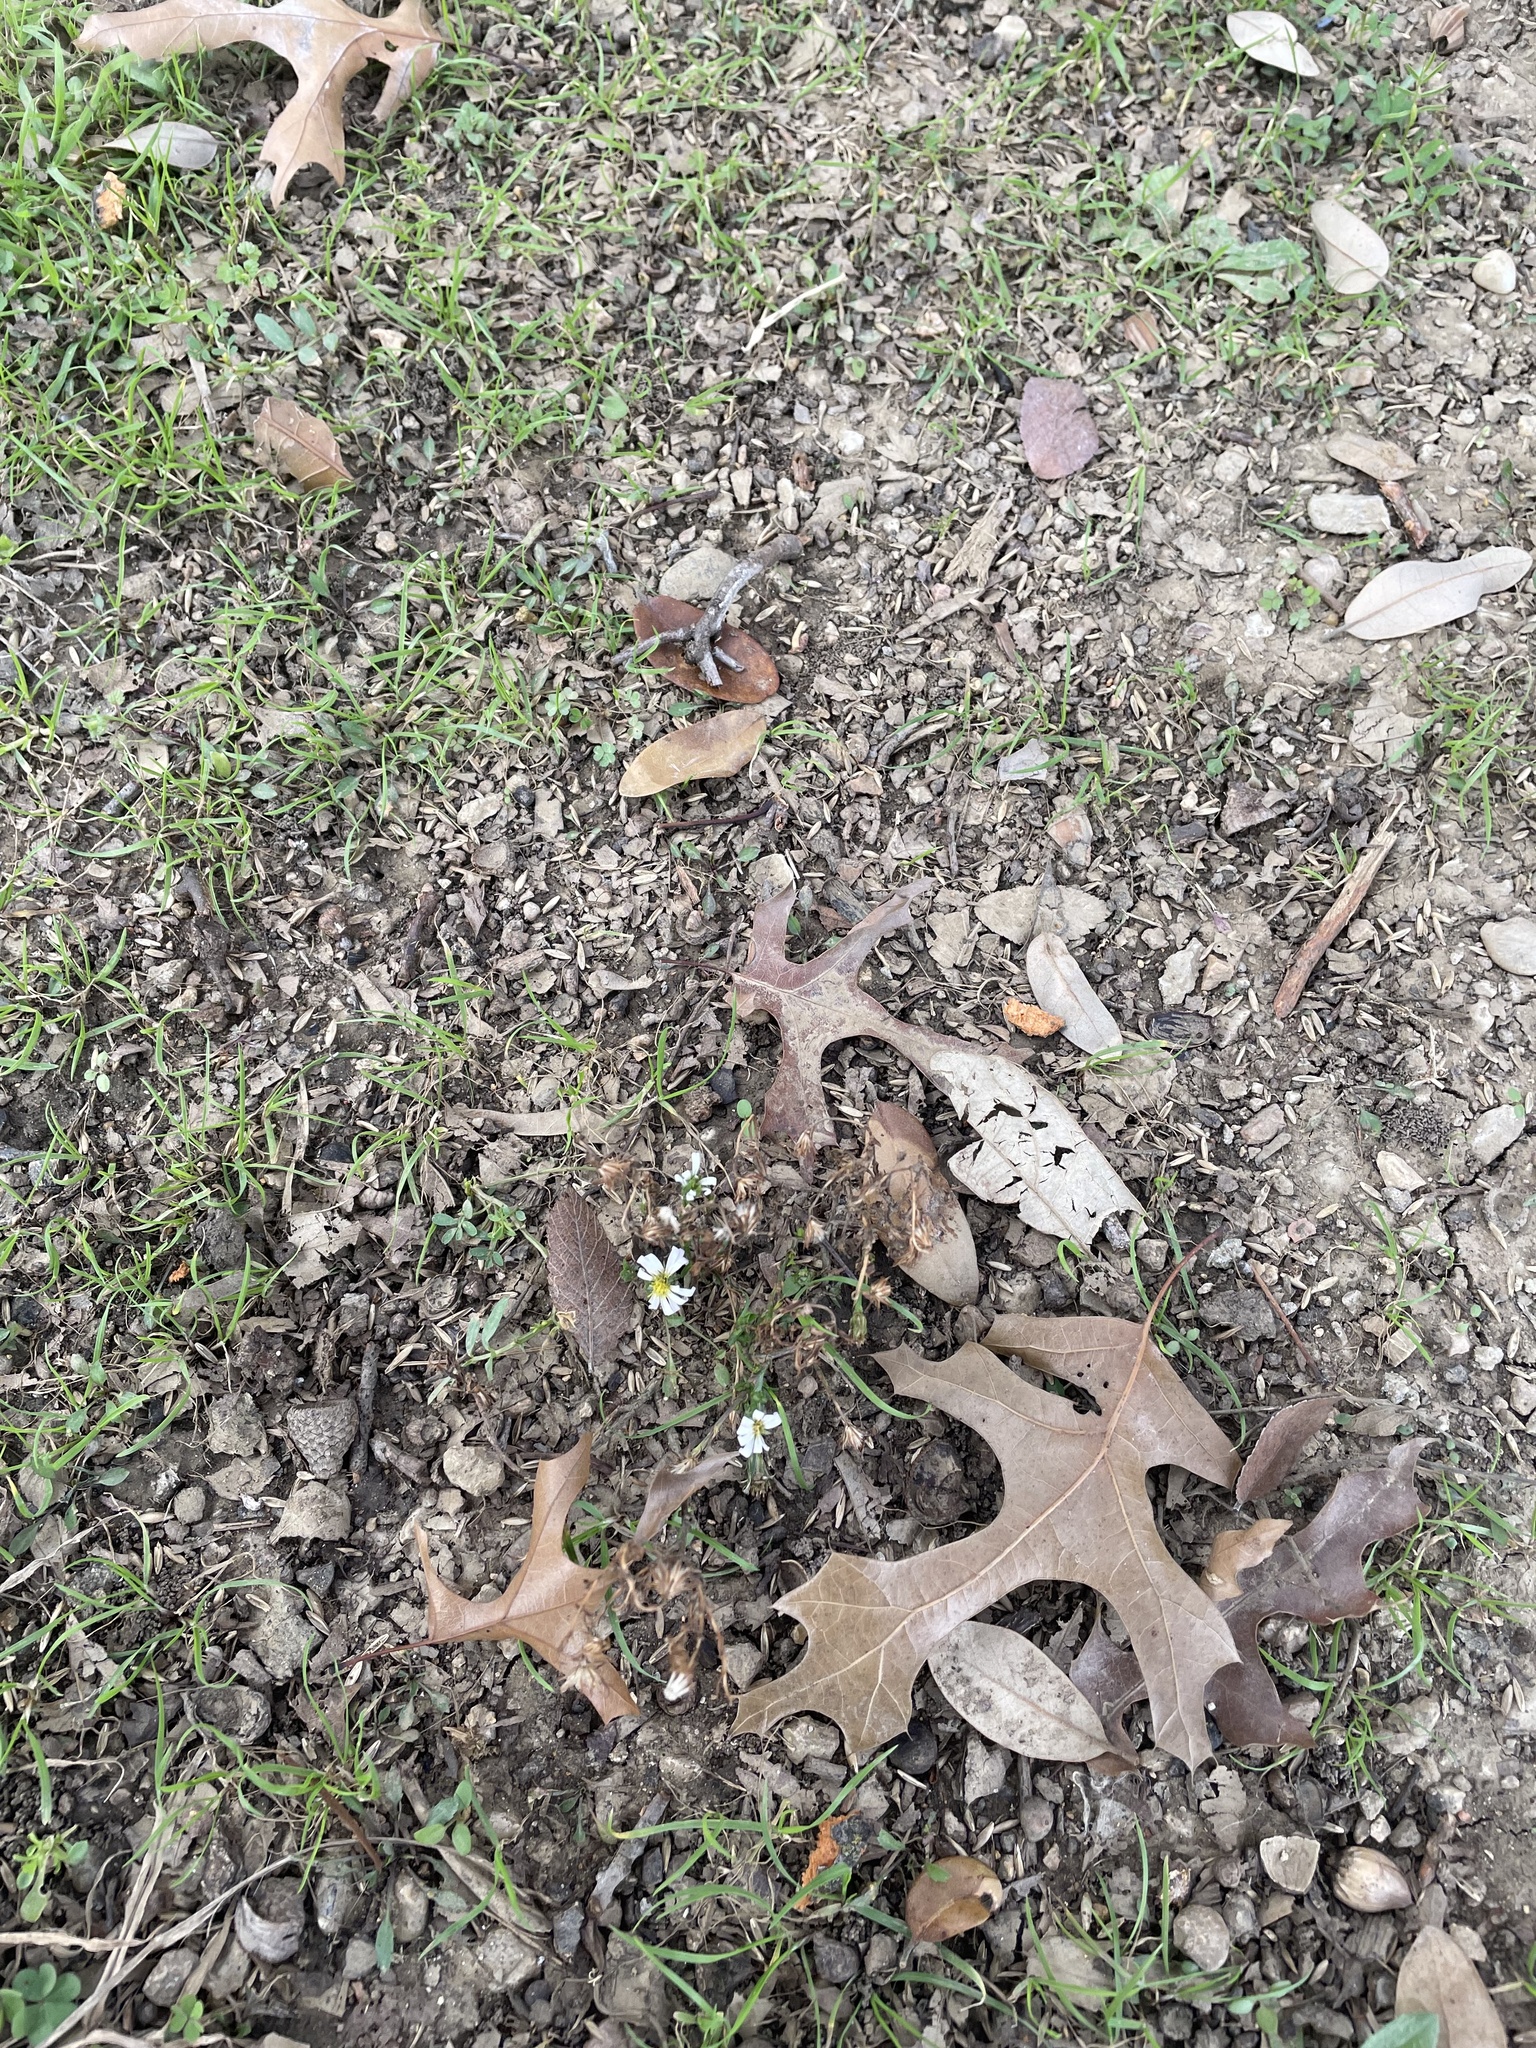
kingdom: Plantae
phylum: Tracheophyta
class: Magnoliopsida
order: Asterales
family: Asteraceae
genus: Symphyotrichum
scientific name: Symphyotrichum divaricatum
